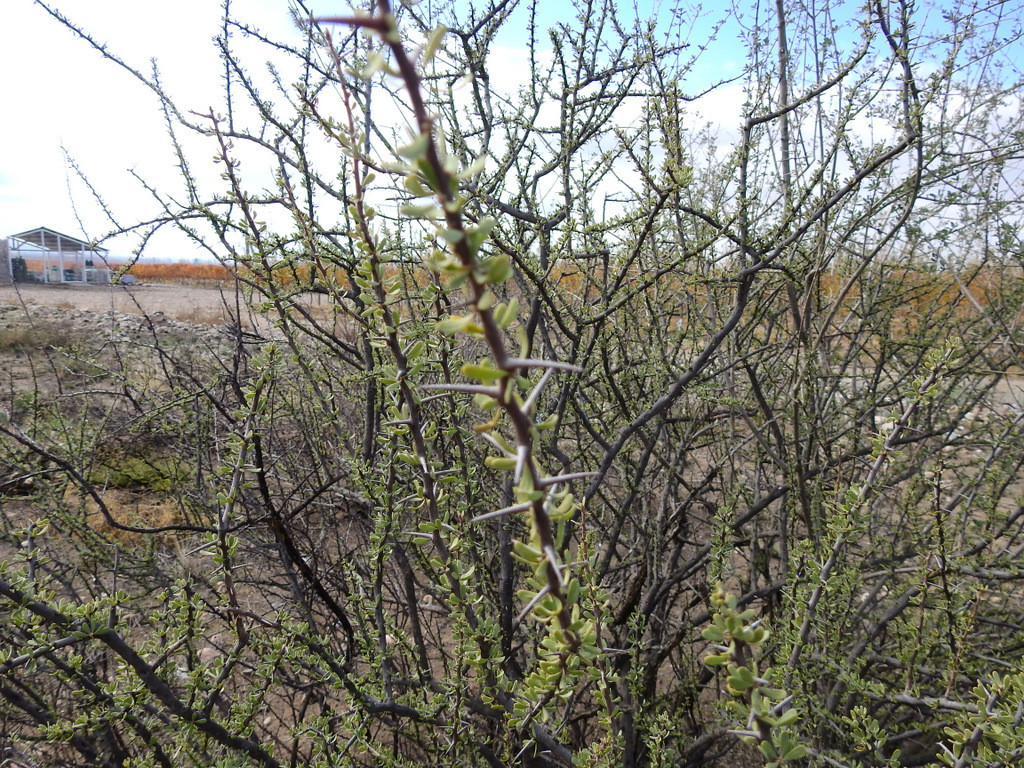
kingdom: Plantae
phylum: Tracheophyta
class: Magnoliopsida
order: Caryophyllales
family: Nyctaginaceae
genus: Bougainvillea
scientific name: Bougainvillea spinosa
